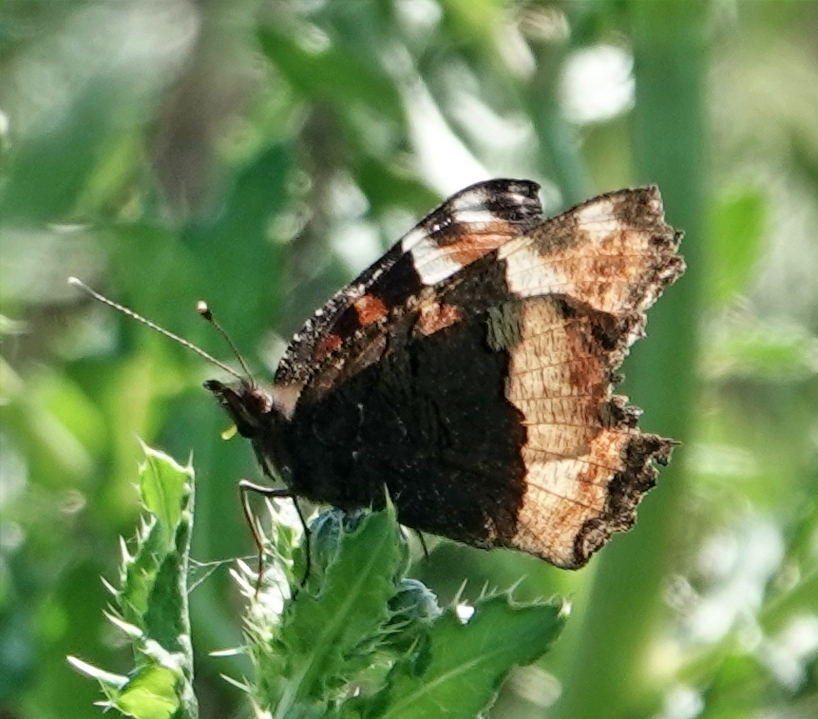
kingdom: Animalia
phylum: Arthropoda
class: Insecta
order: Lepidoptera
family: Nymphalidae
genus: Aglais
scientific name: Aglais milberti
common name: Milbert's tortoiseshell
